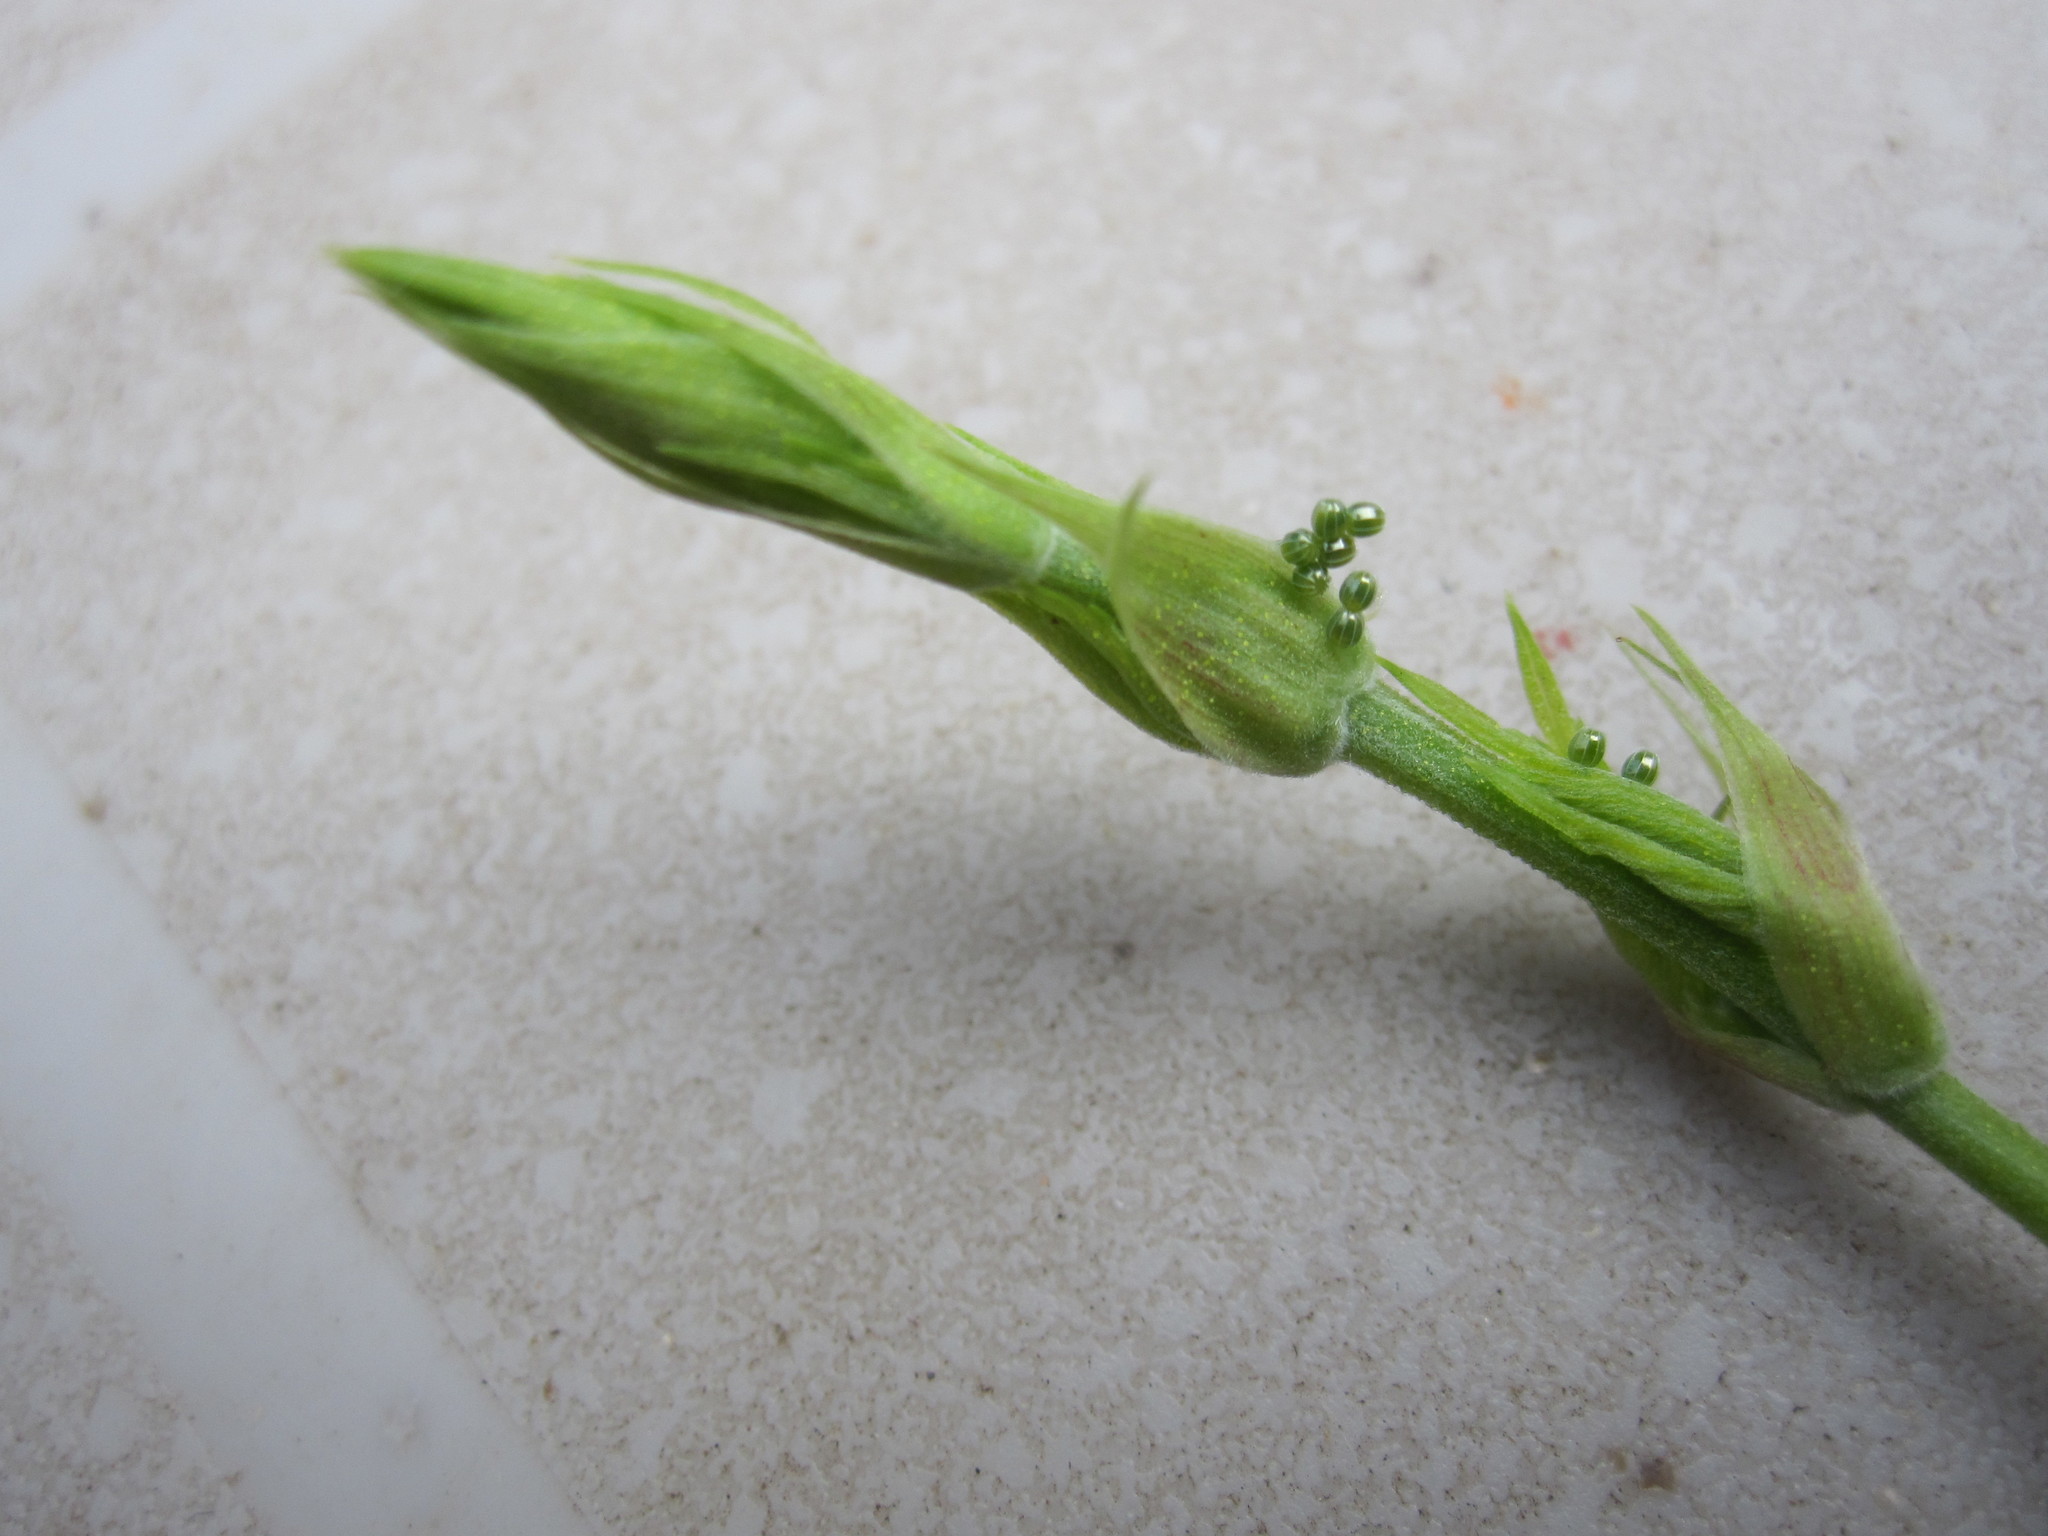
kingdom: Animalia
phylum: Arthropoda
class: Insecta
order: Lepidoptera
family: Nymphalidae
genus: Polygonia
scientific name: Polygonia interrogationis
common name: Question mark
